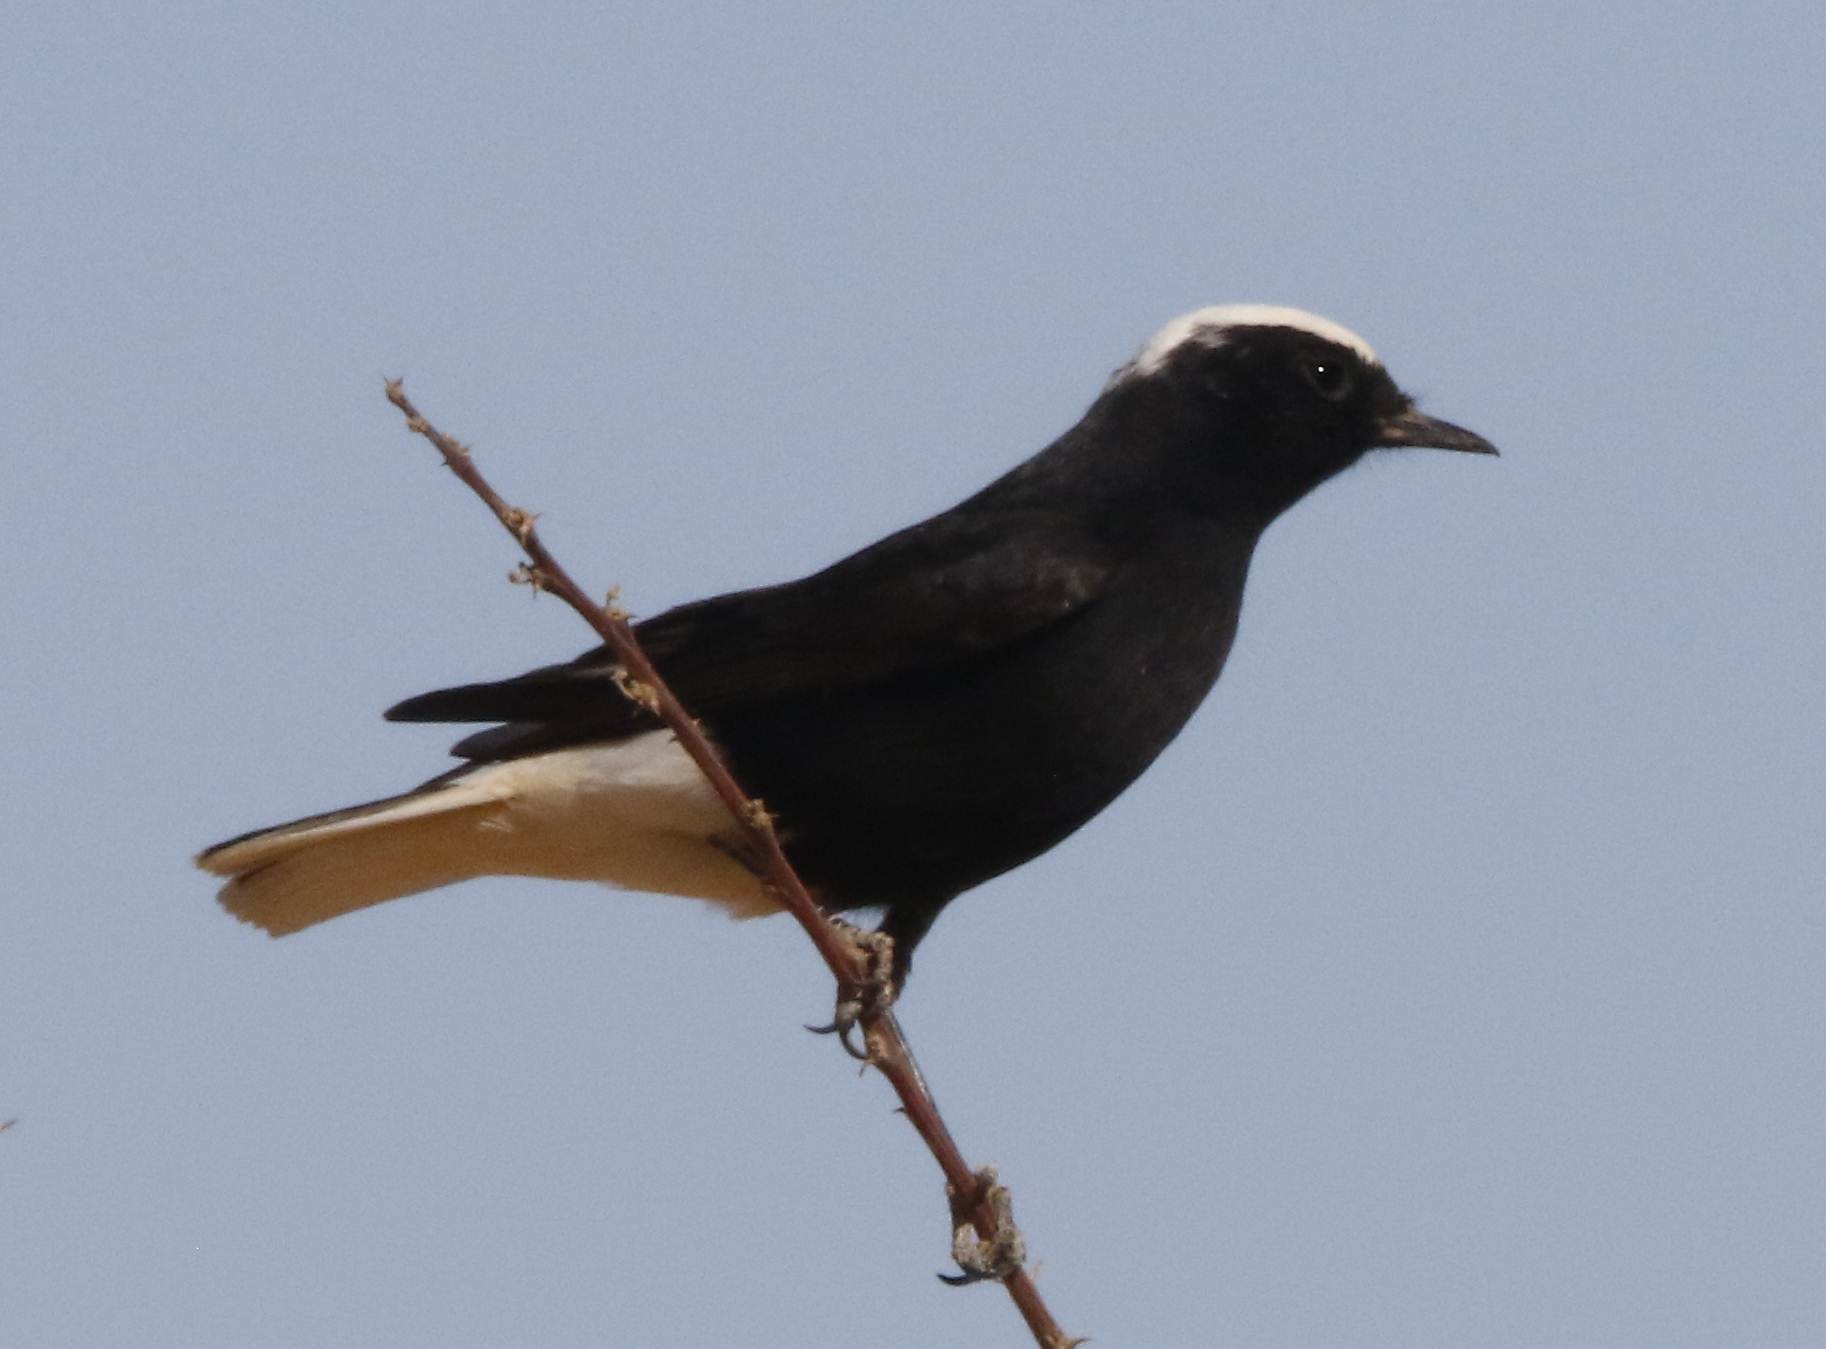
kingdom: Animalia
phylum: Chordata
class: Aves
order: Passeriformes
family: Muscicapidae
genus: Oenanthe
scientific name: Oenanthe leucopyga
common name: White-crowned wheatear
